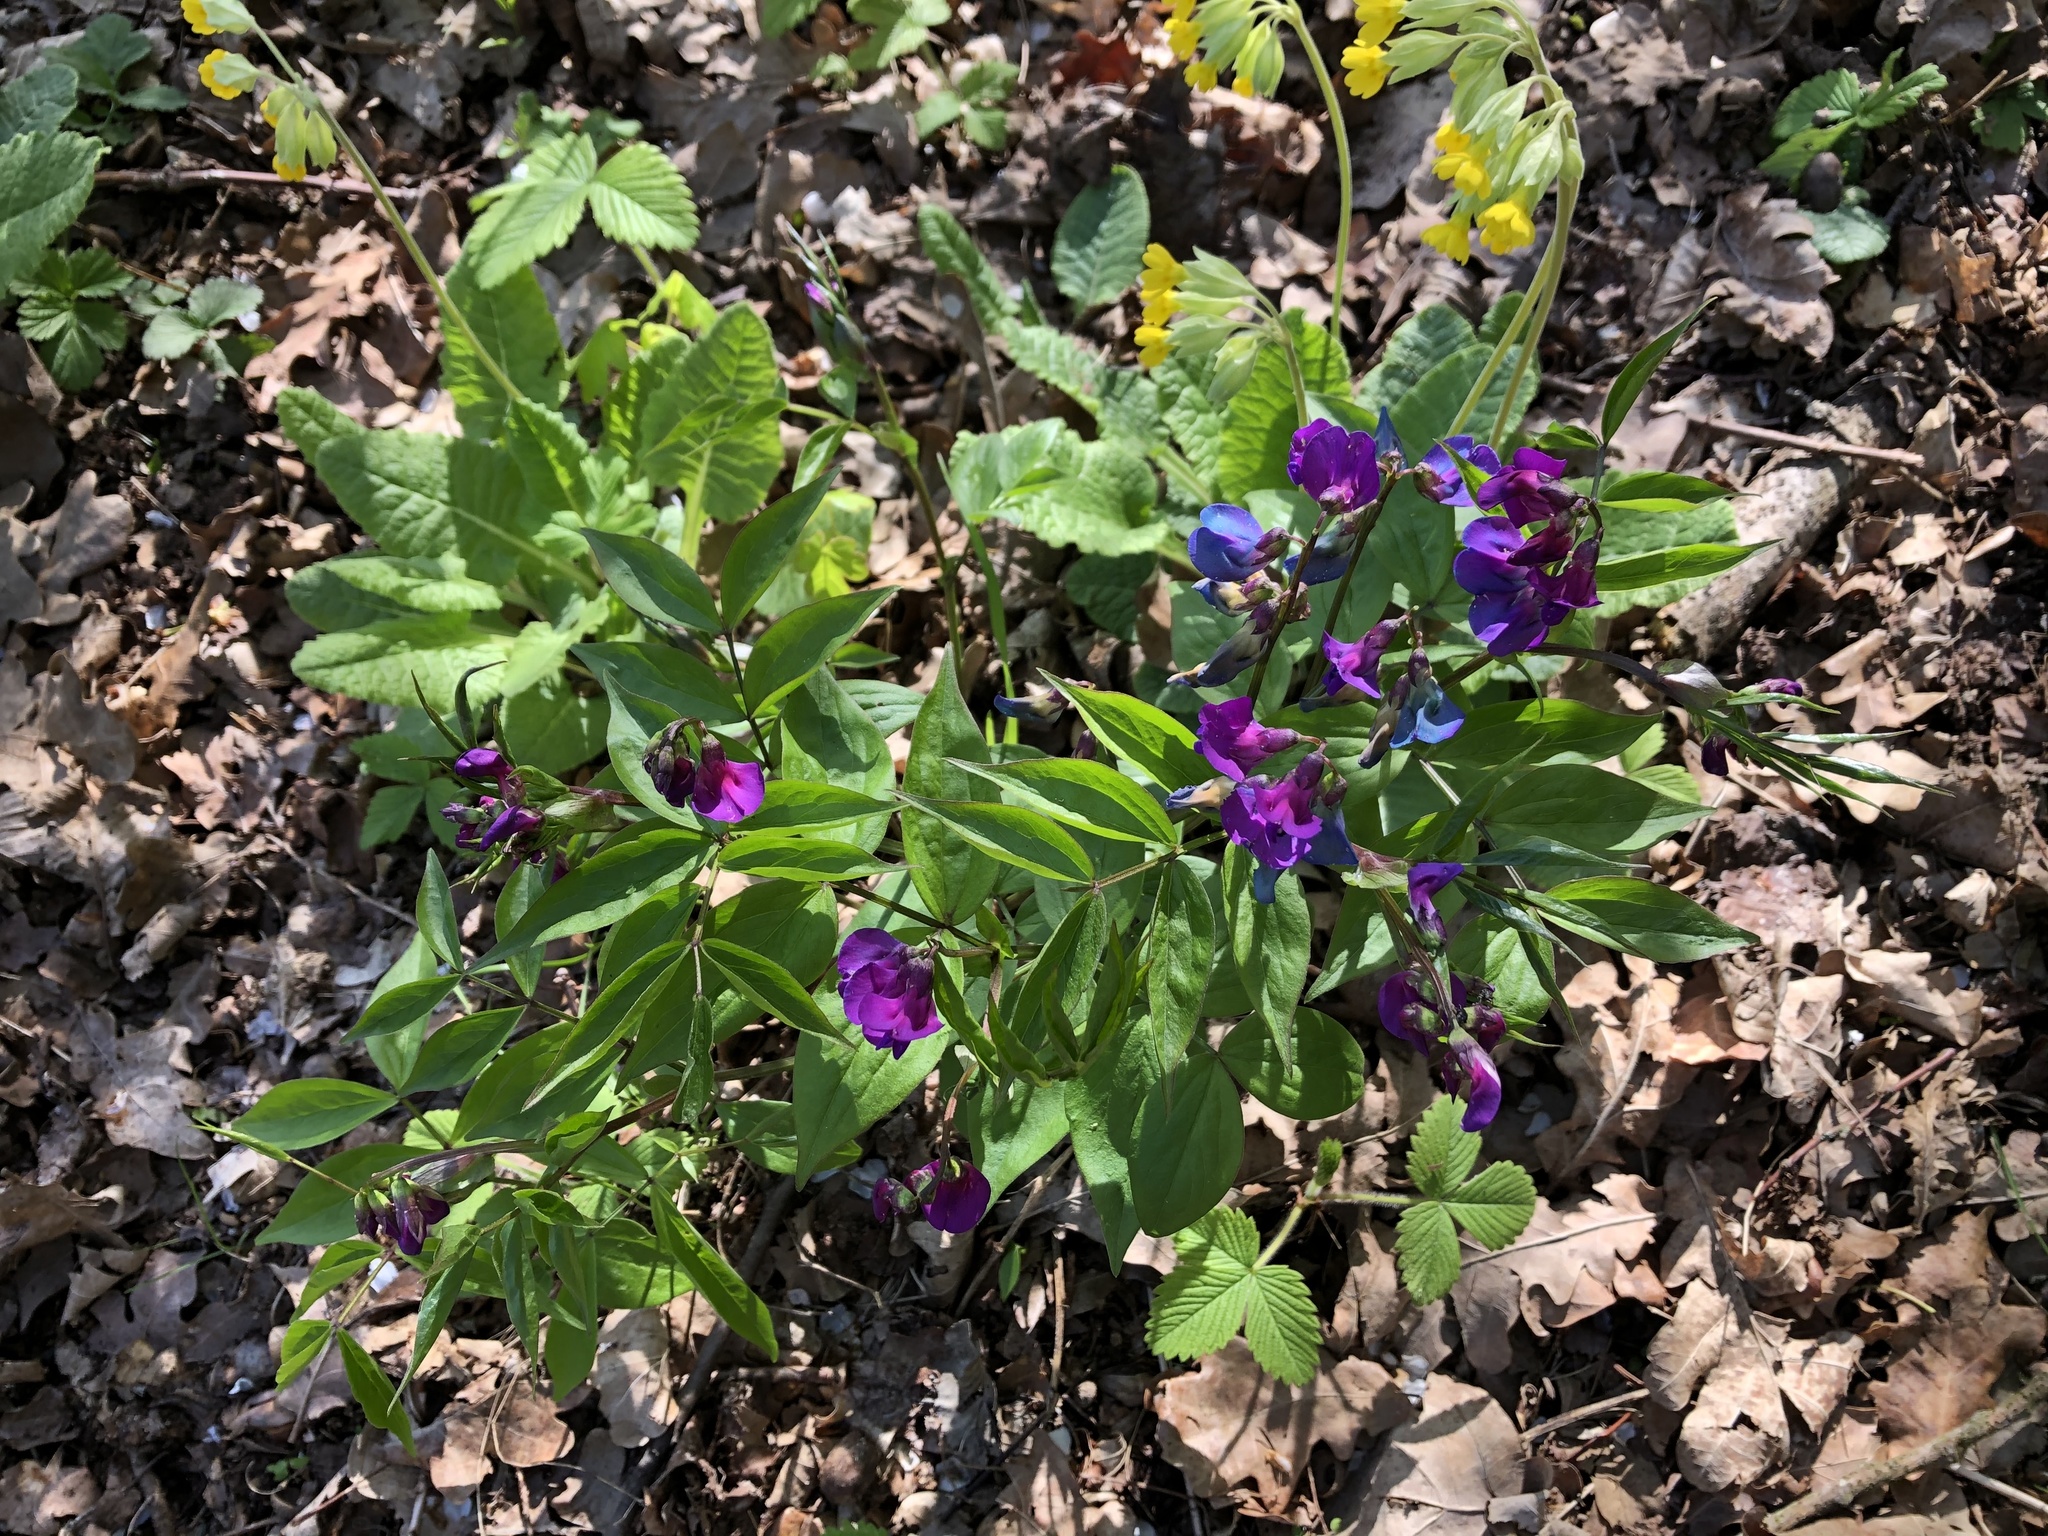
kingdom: Plantae
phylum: Tracheophyta
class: Magnoliopsida
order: Fabales
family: Fabaceae
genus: Lathyrus
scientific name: Lathyrus vernus
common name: Spring pea
